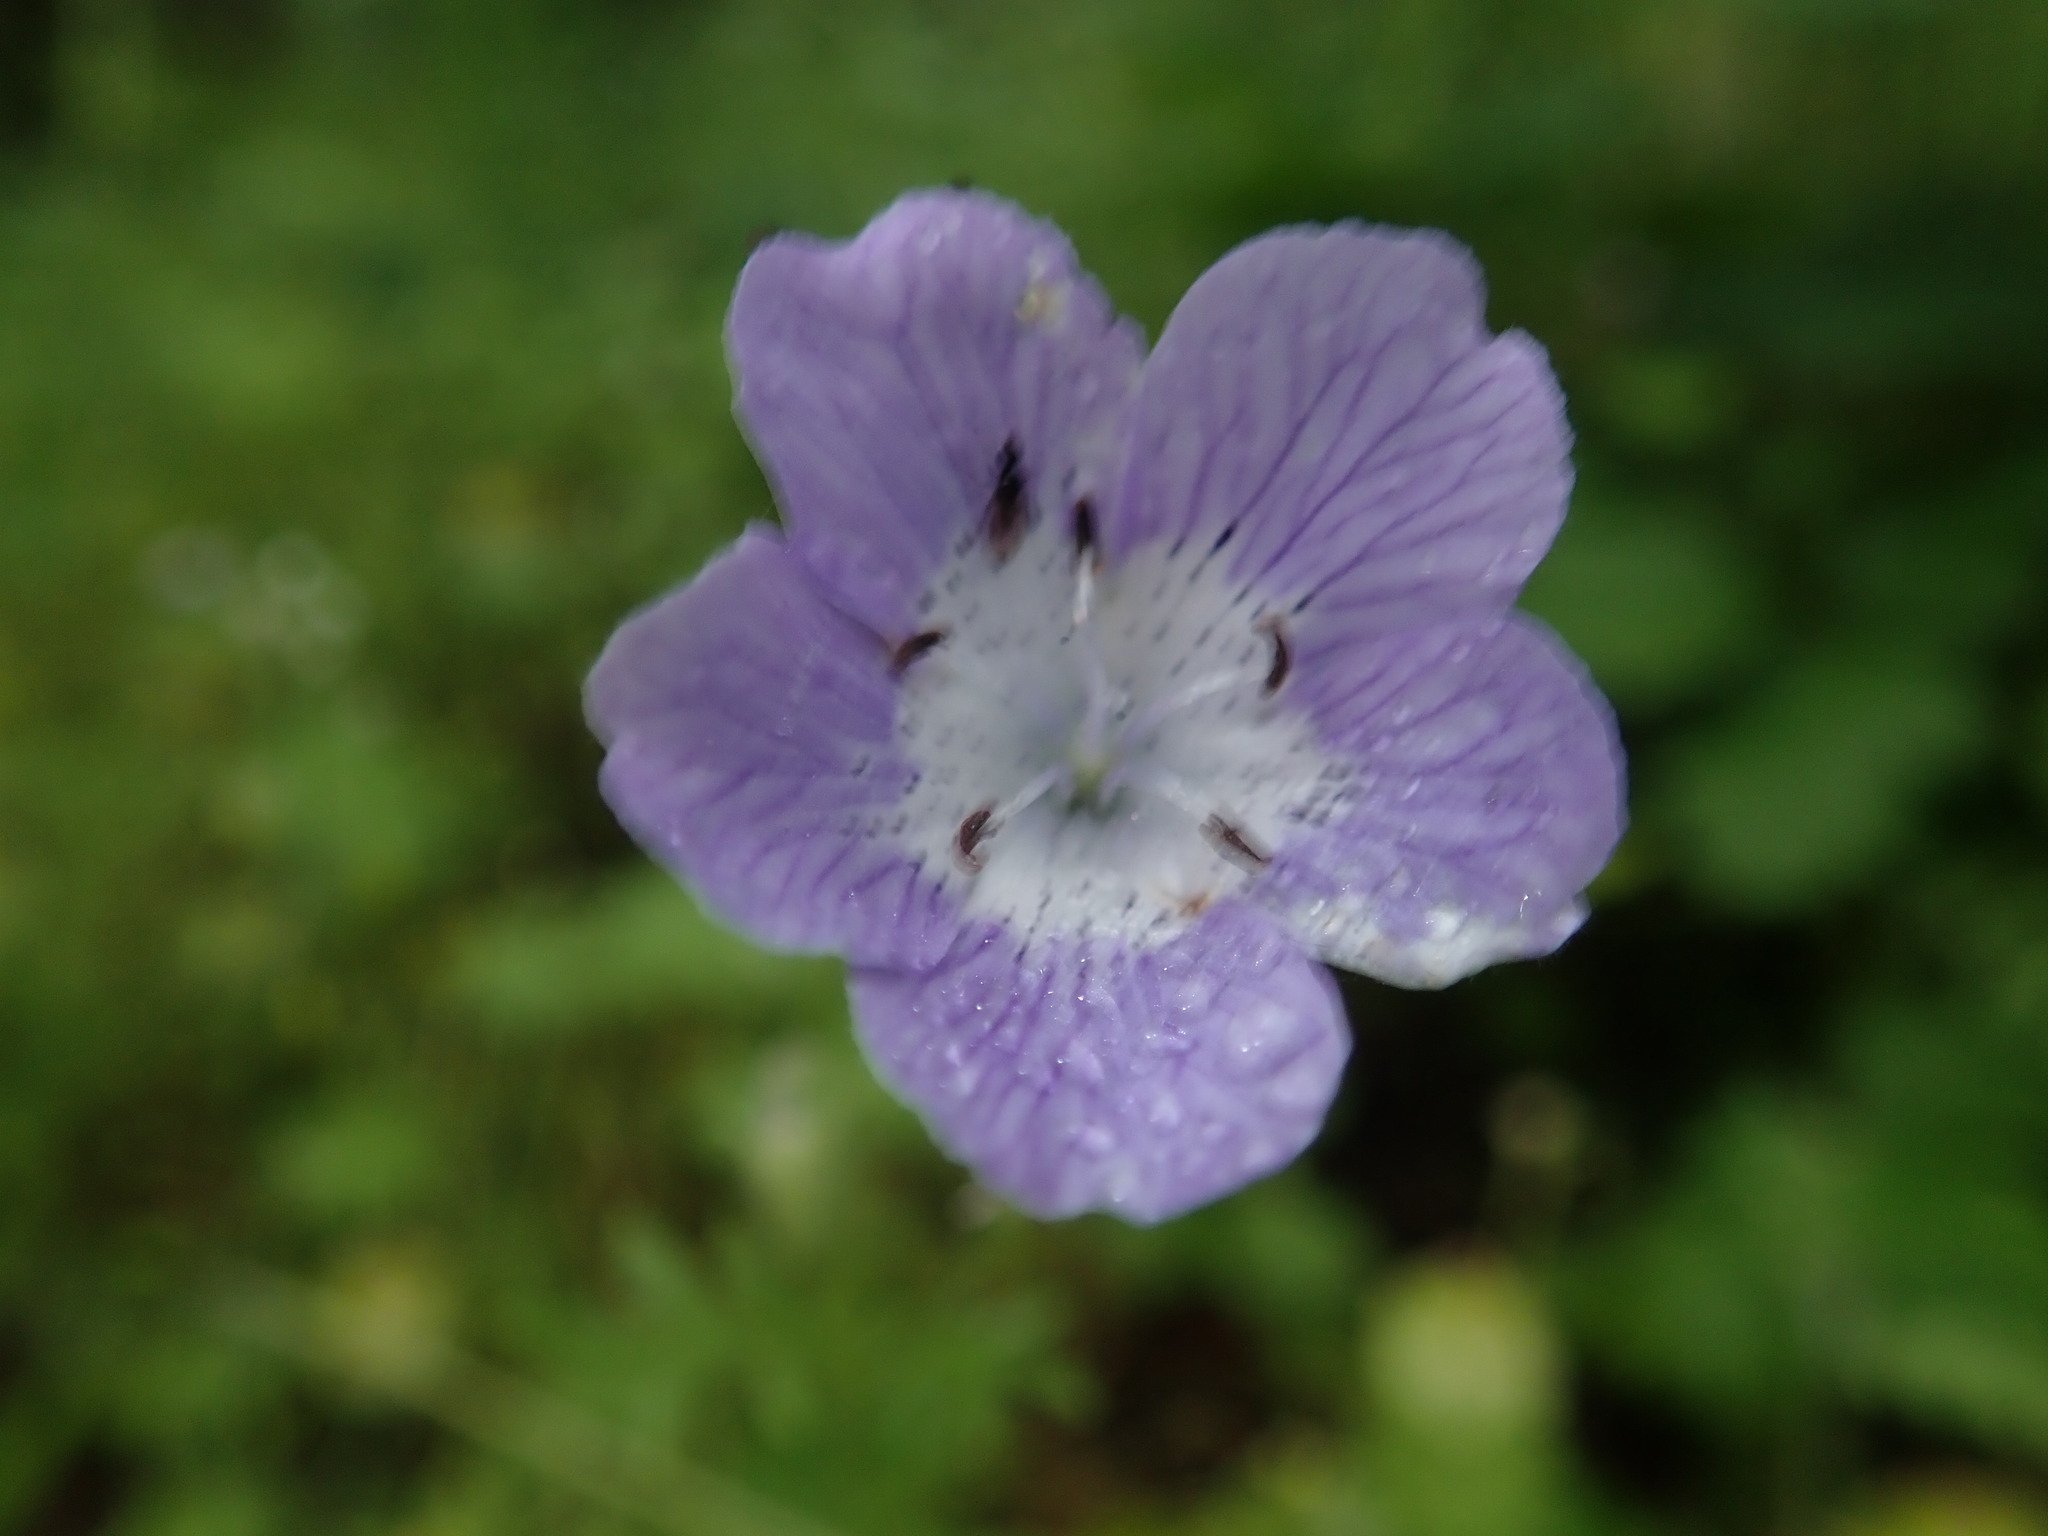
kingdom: Plantae
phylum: Tracheophyta
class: Magnoliopsida
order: Boraginales
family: Hydrophyllaceae
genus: Nemophila
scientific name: Nemophila menziesii
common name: Baby's-blue-eyes
